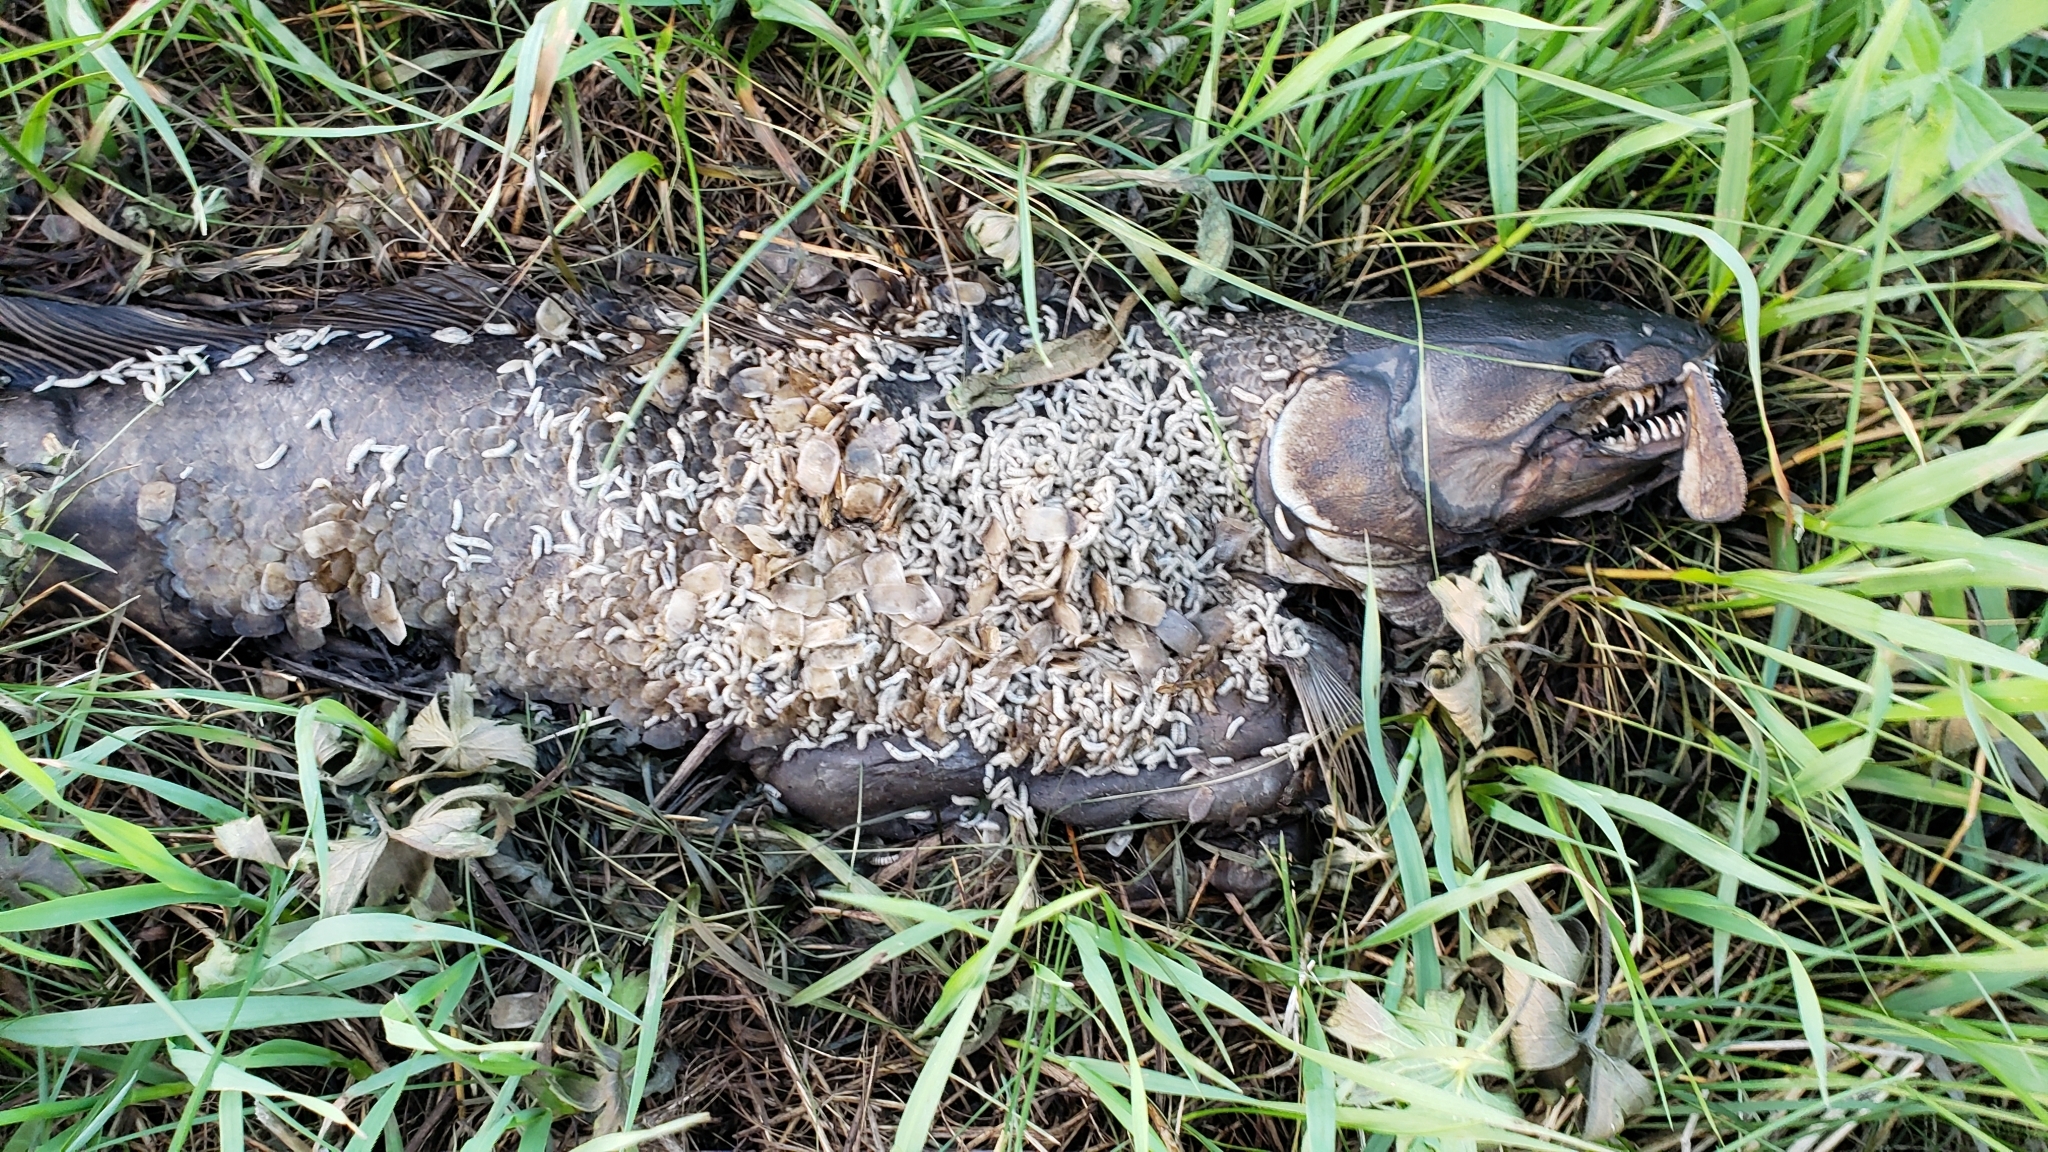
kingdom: Animalia
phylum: Chordata
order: Amiiformes
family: Amiidae
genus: Amia
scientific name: Amia calva
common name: Bowfin
